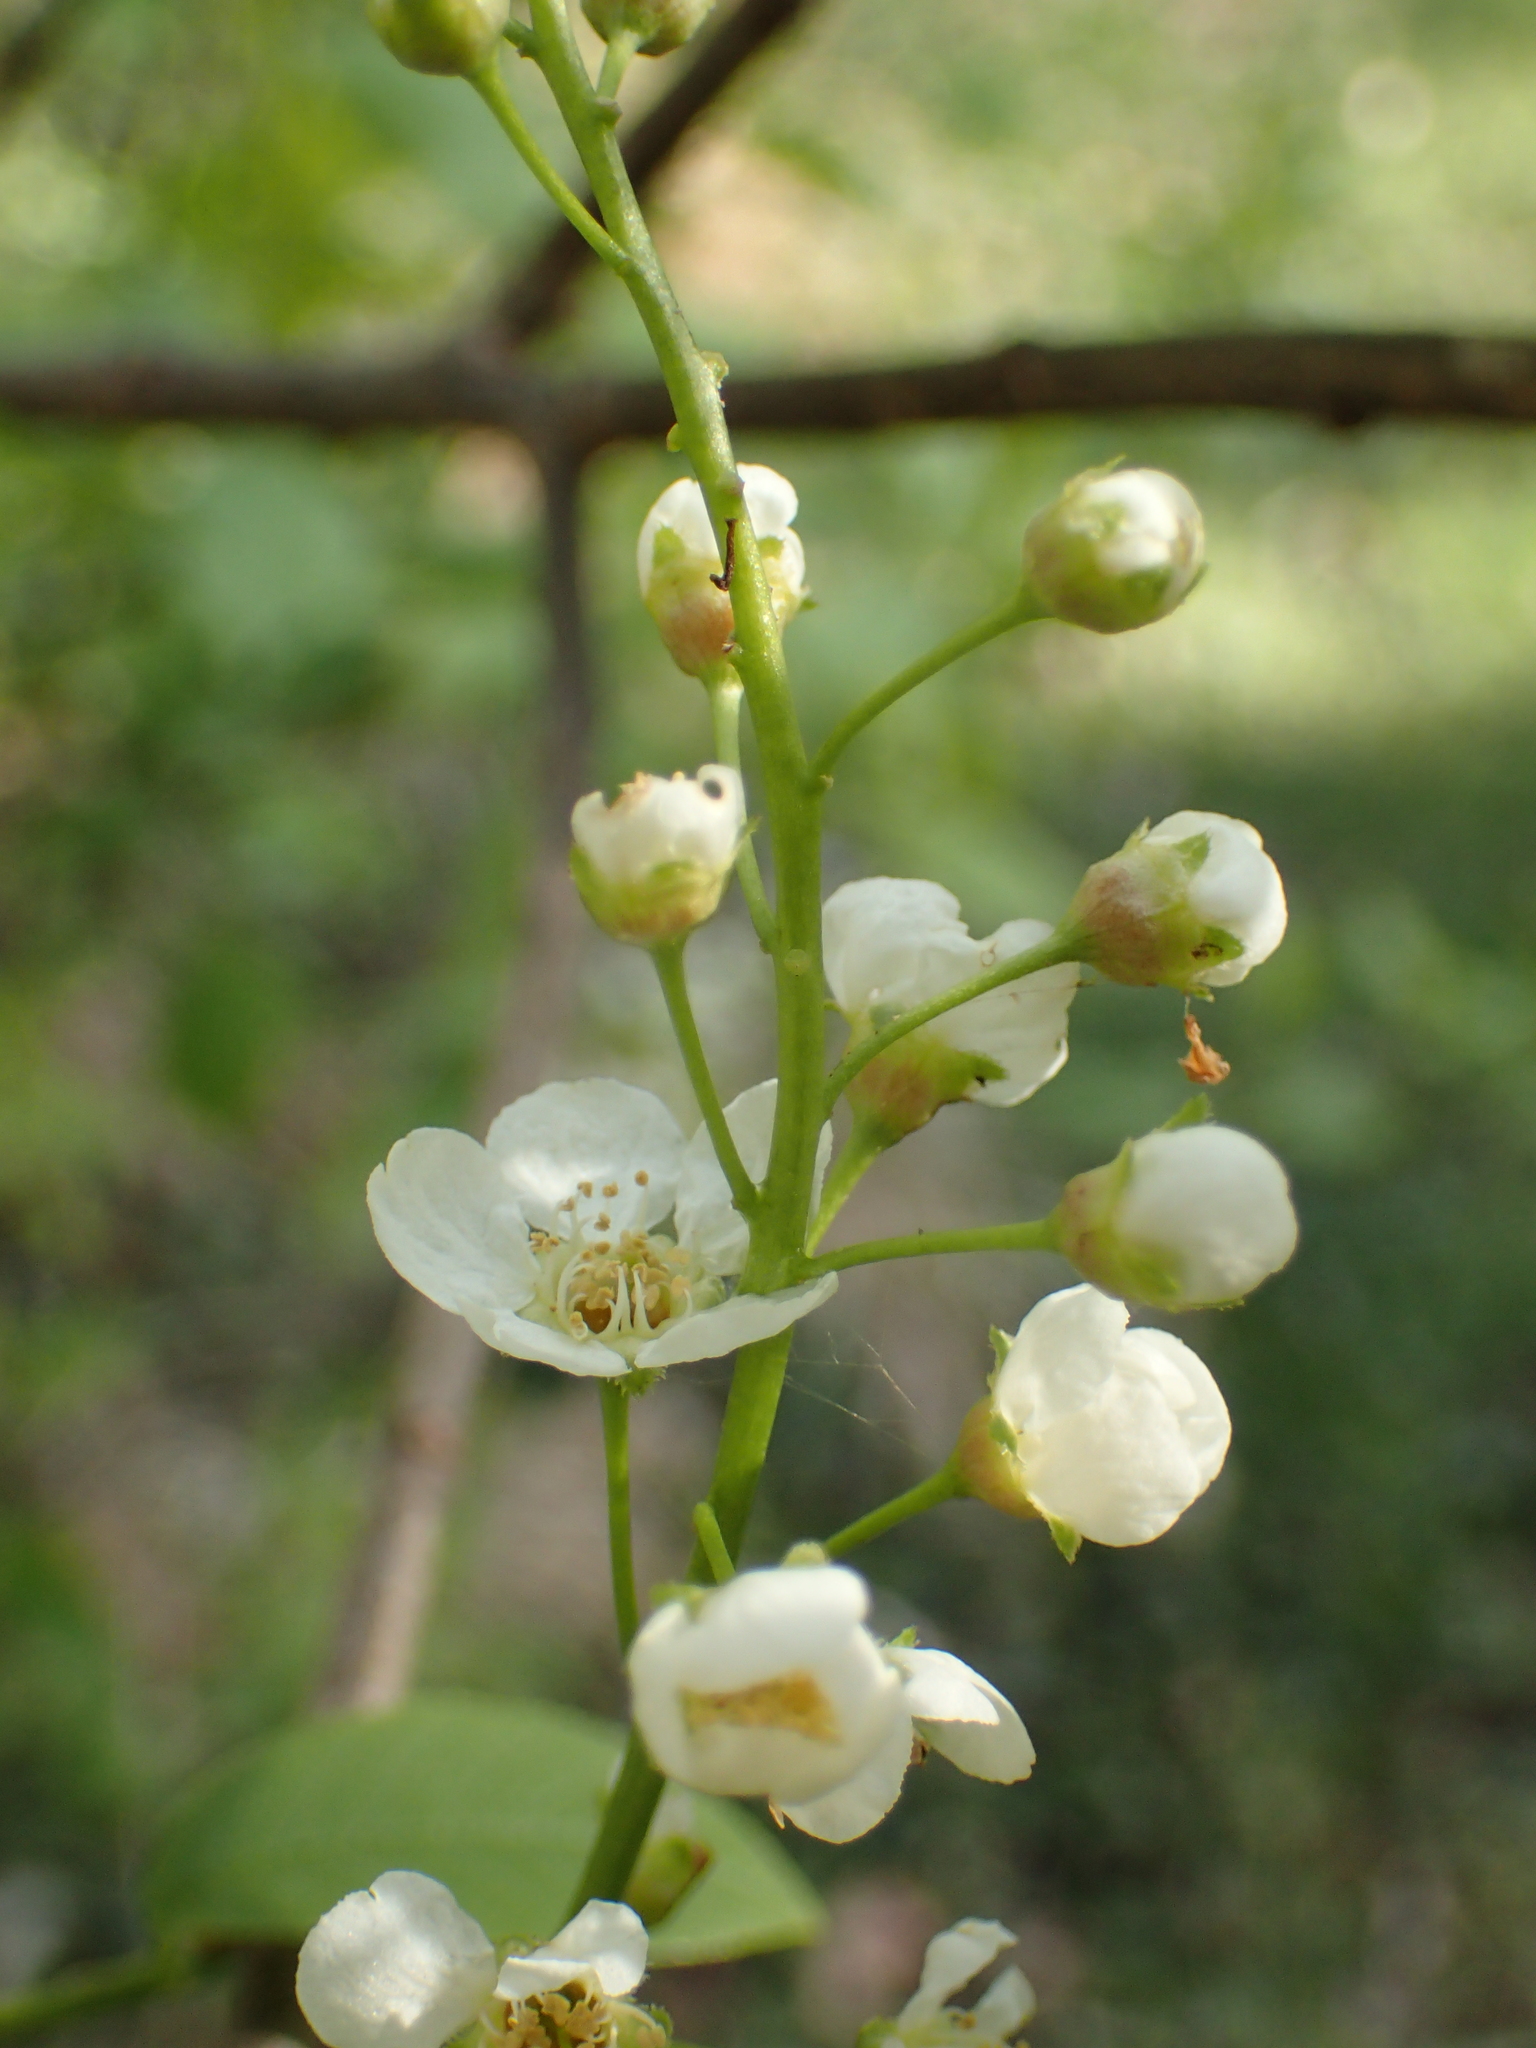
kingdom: Plantae
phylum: Tracheophyta
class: Magnoliopsida
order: Rosales
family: Rosaceae
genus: Prunus
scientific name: Prunus padus
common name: Bird cherry
